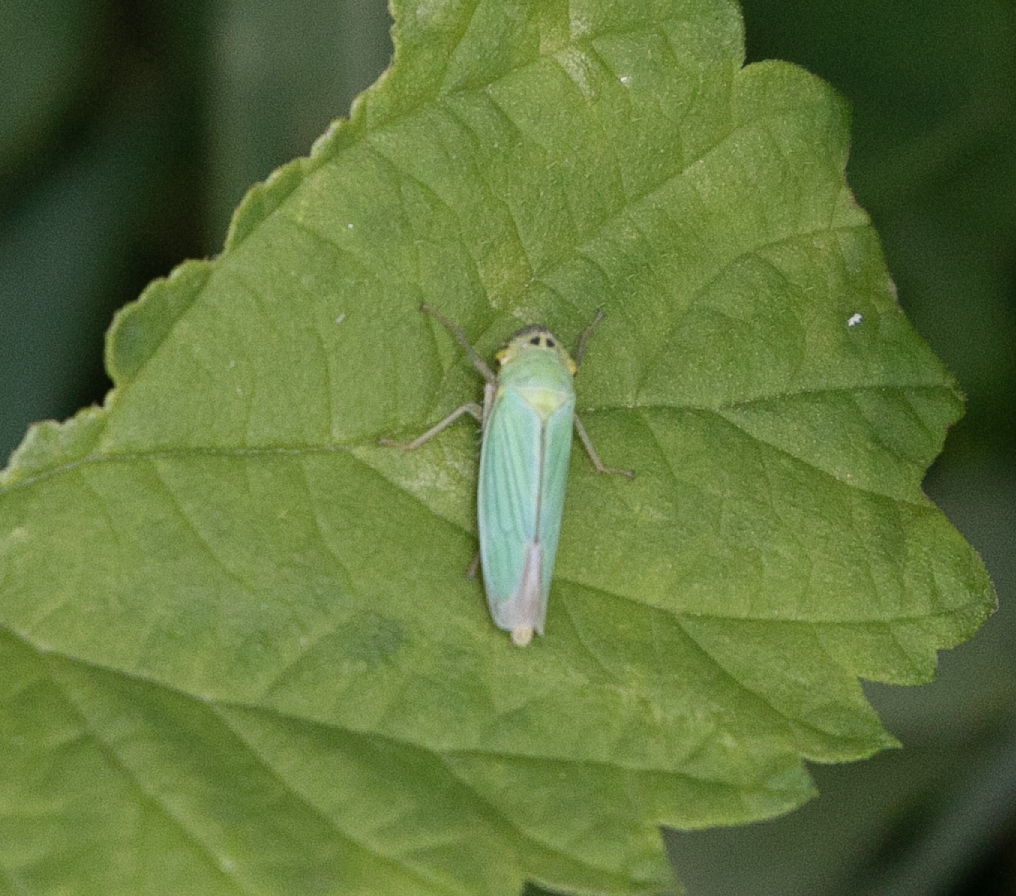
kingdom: Animalia
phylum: Arthropoda
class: Insecta
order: Hemiptera
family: Cicadellidae
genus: Cicadella
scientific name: Cicadella viridis
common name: Leafhopper
